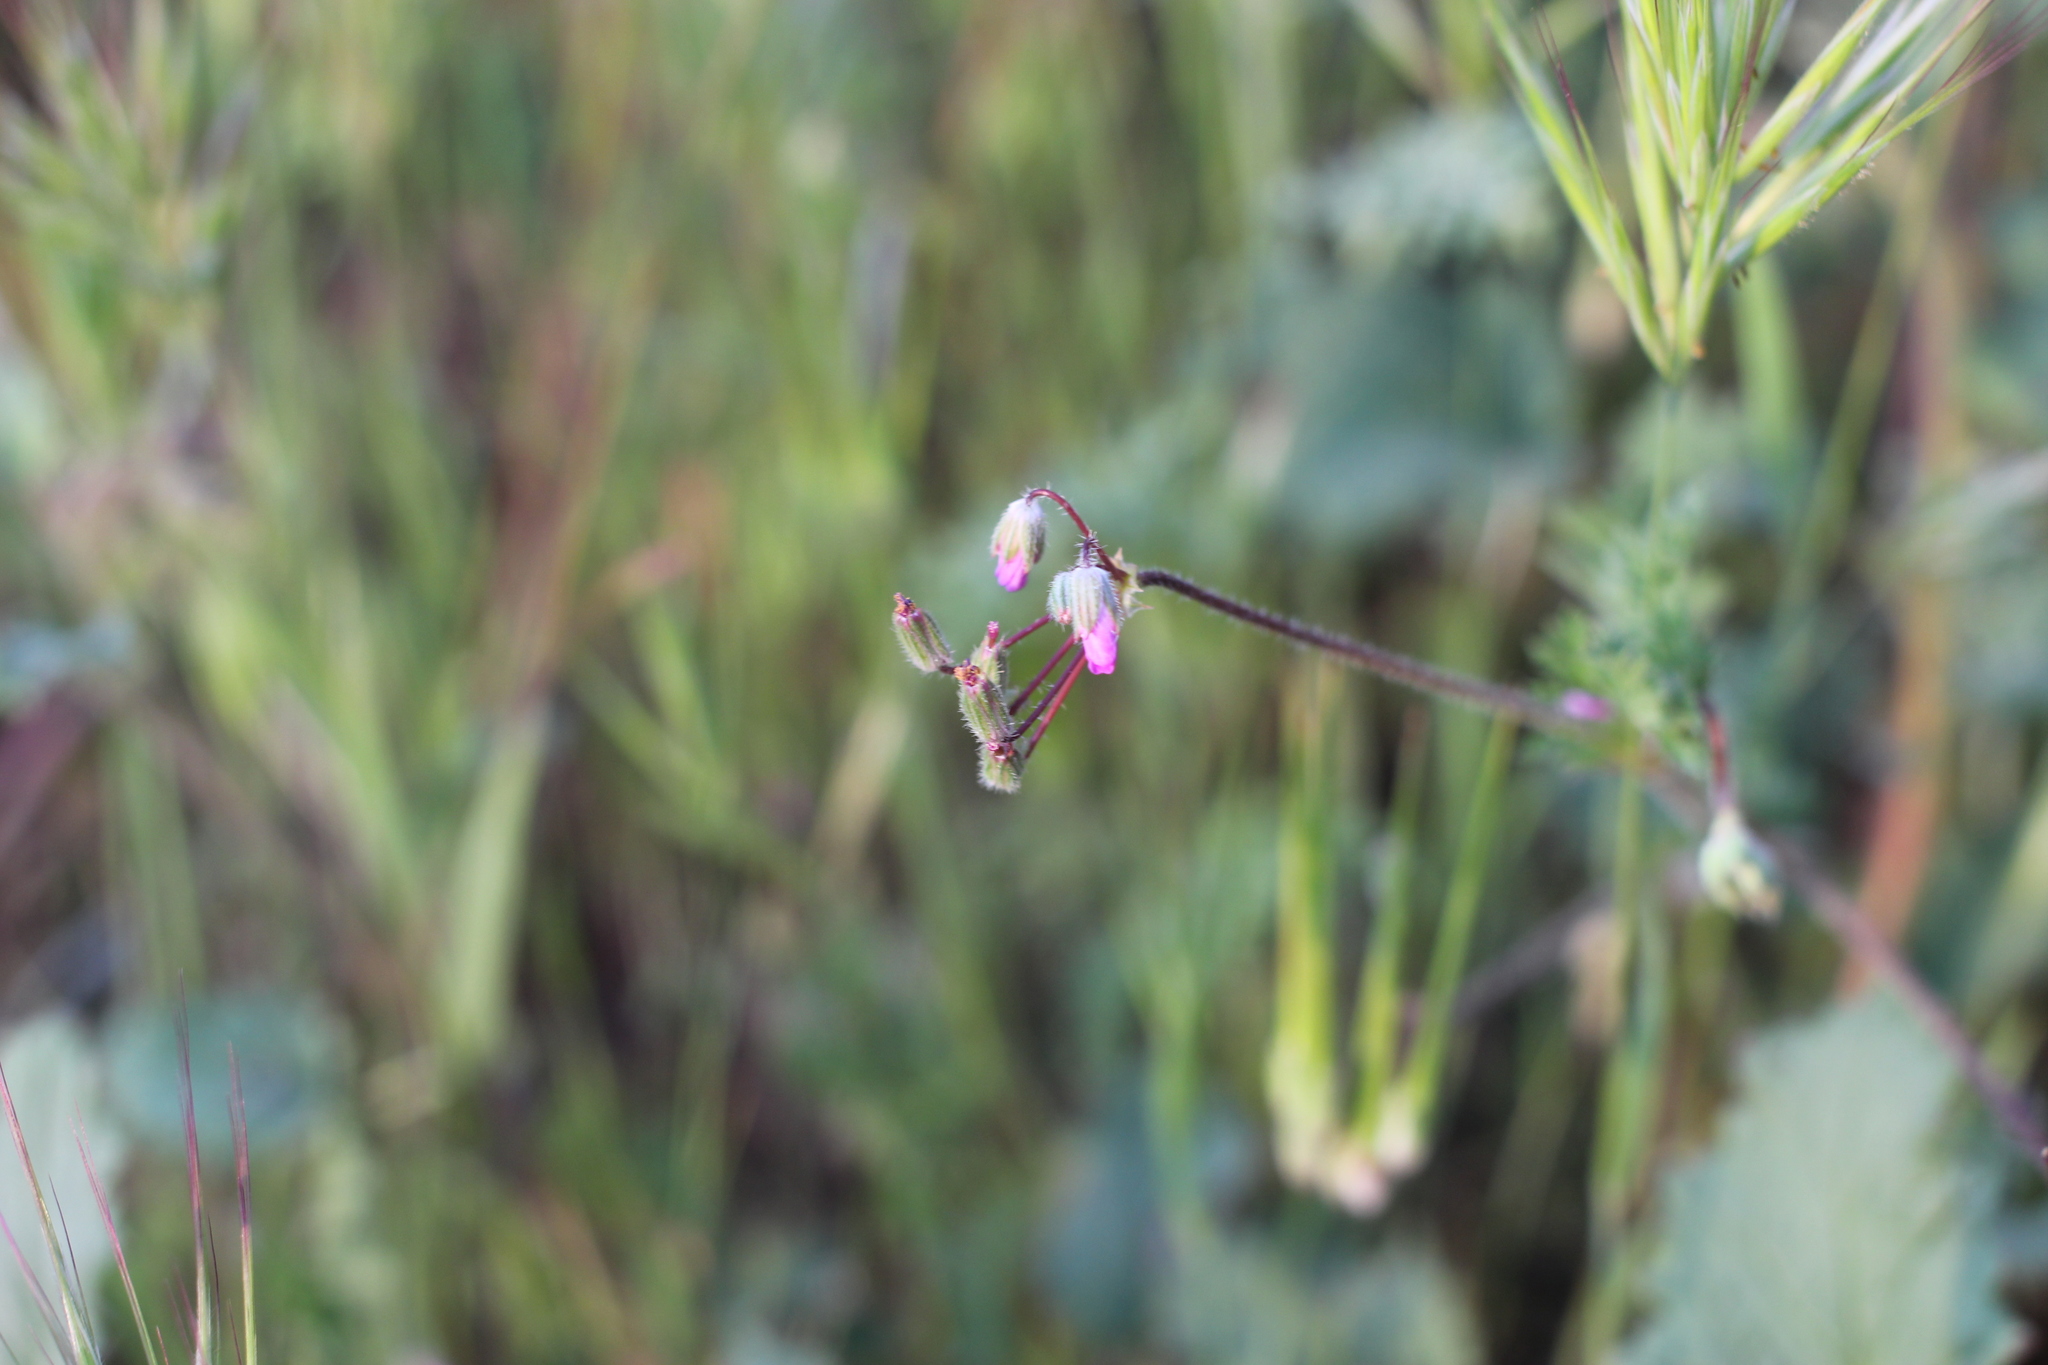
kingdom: Plantae
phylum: Tracheophyta
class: Magnoliopsida
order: Geraniales
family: Geraniaceae
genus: Erodium
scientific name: Erodium cicutarium
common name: Common stork's-bill
